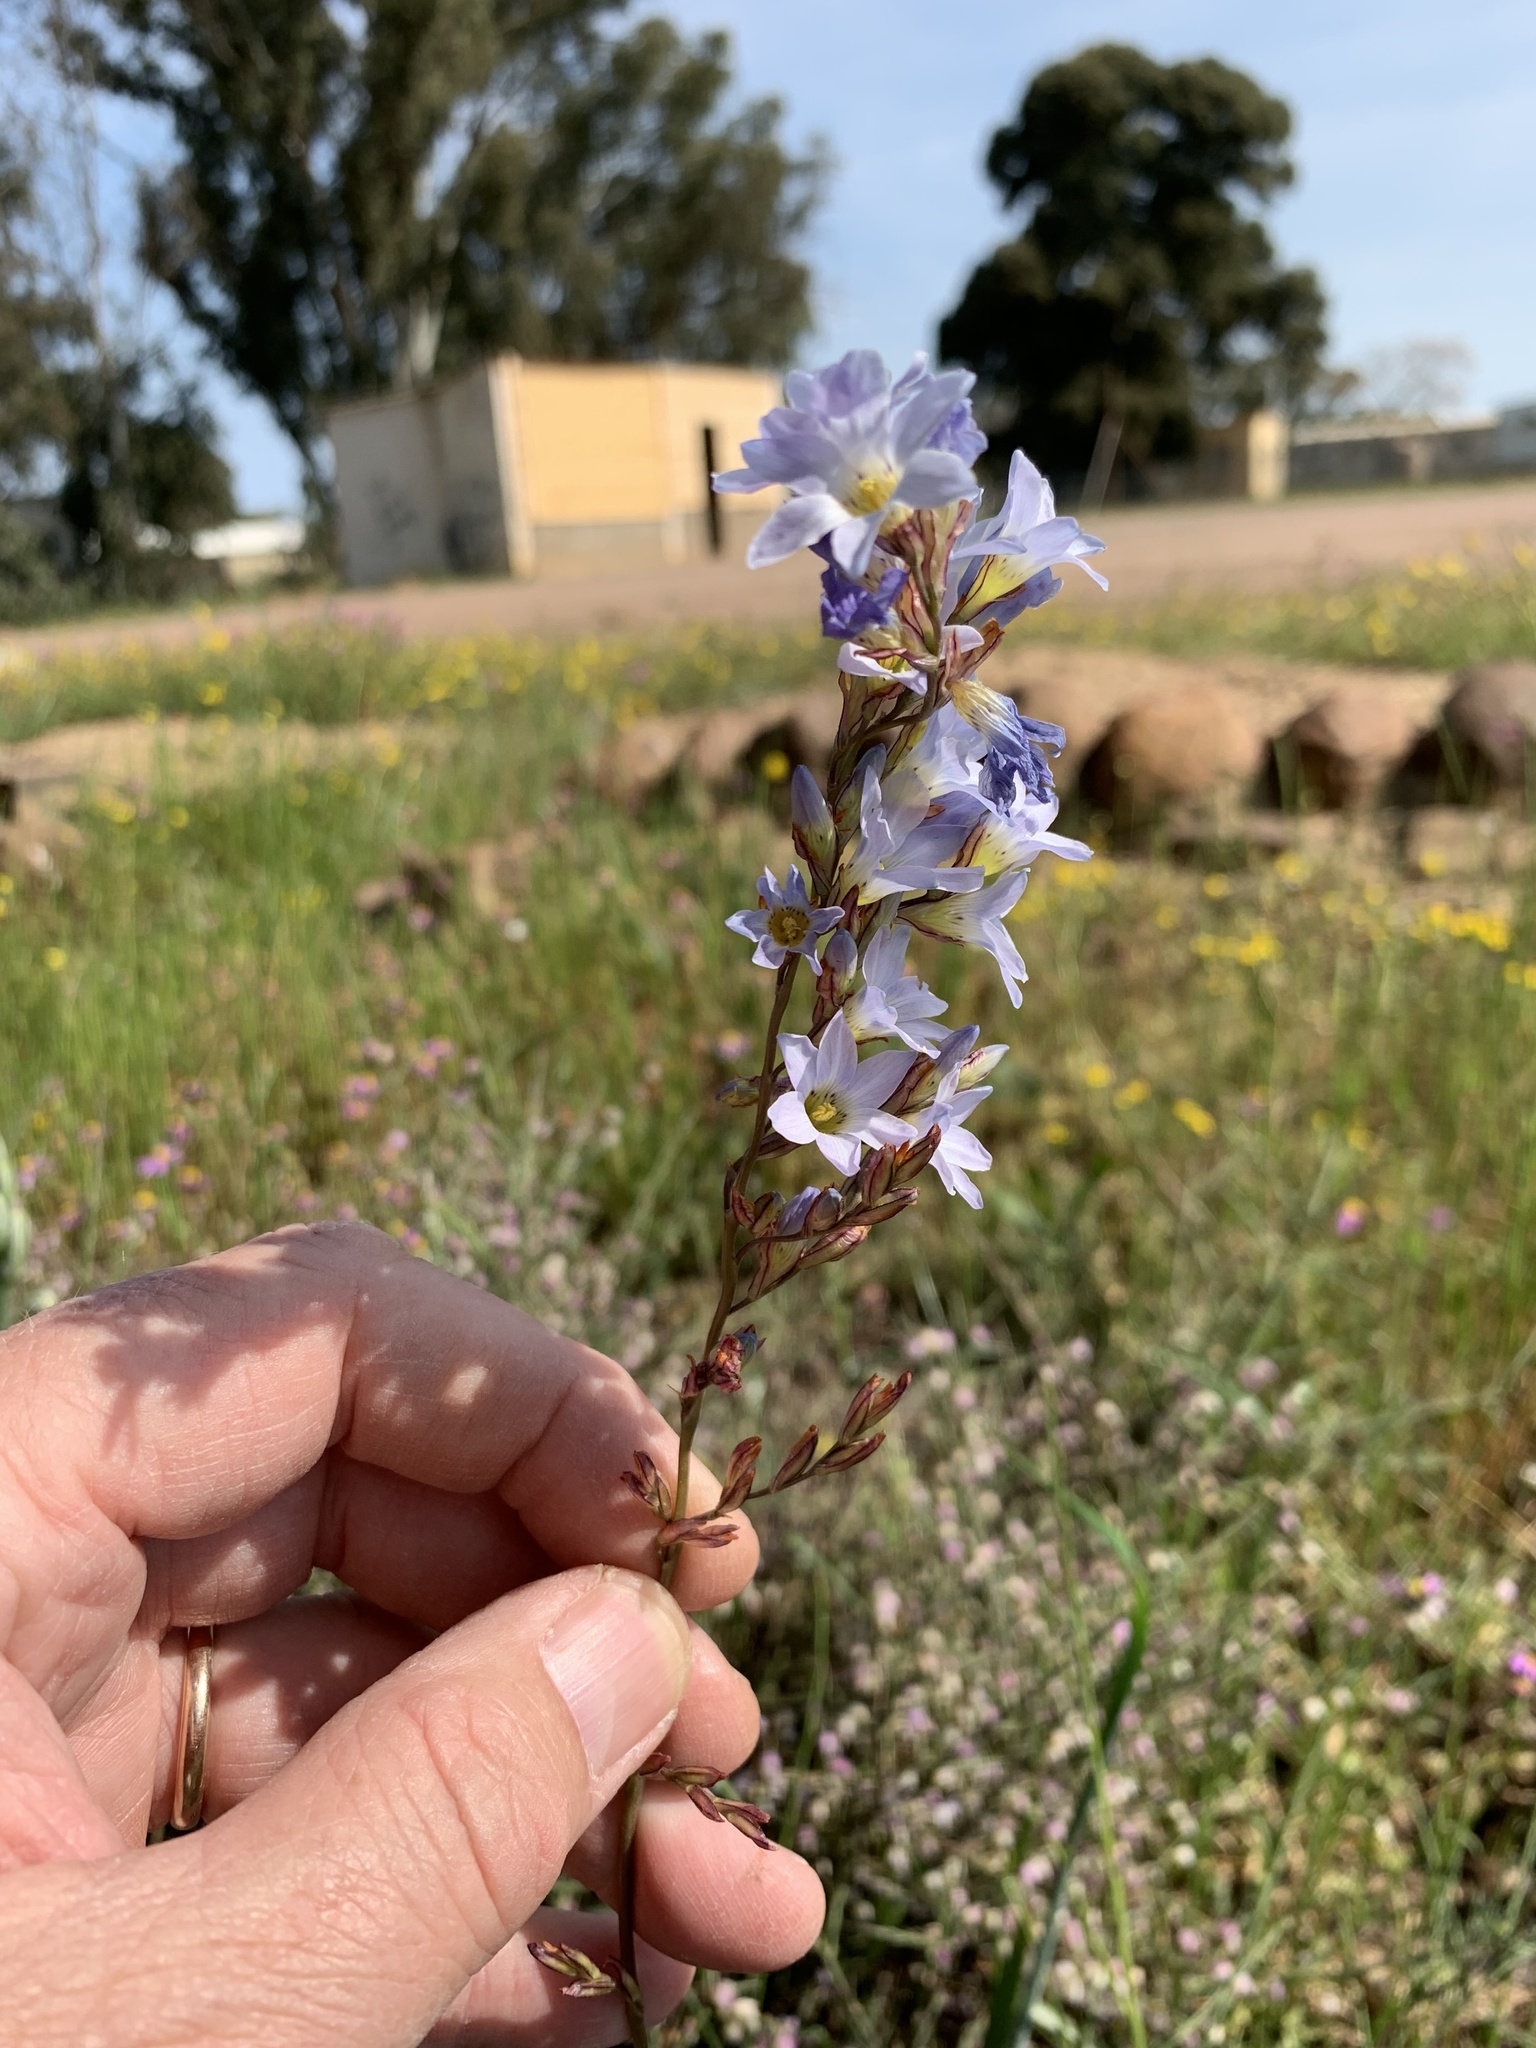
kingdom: Plantae
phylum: Tracheophyta
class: Liliopsida
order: Asparagales
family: Iridaceae
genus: Ixia
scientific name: Ixia rapunculoides
